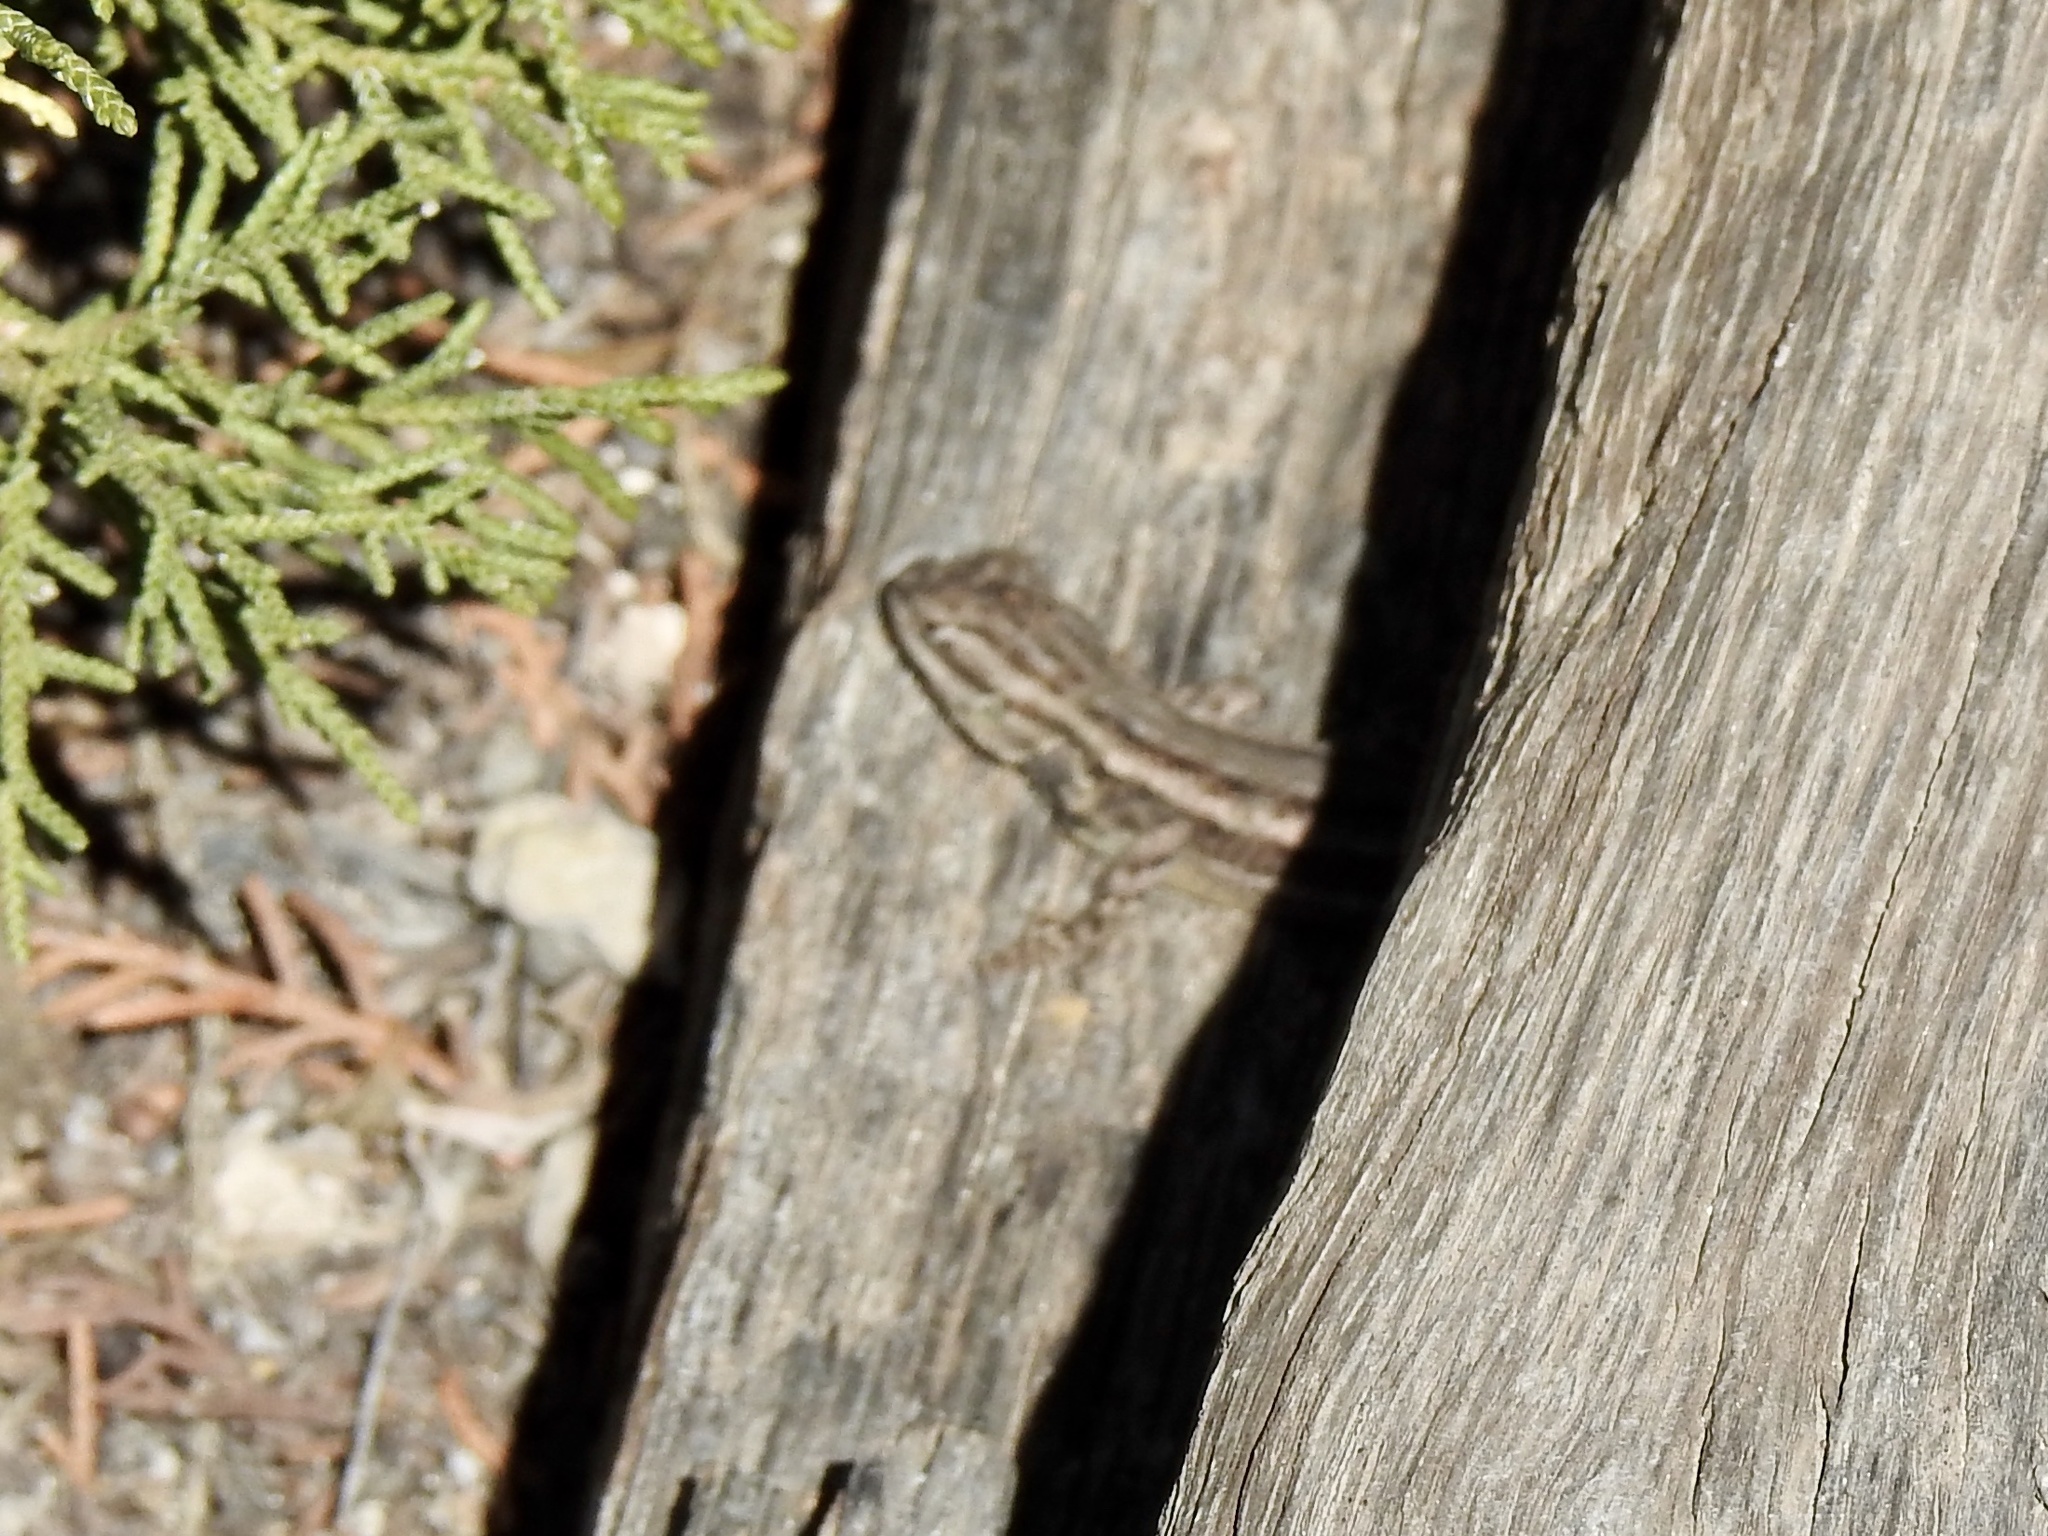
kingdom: Animalia
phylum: Chordata
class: Squamata
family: Phrynosomatidae
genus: Sceloporus
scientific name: Sceloporus cowlesi
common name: White sands prairie lizard
